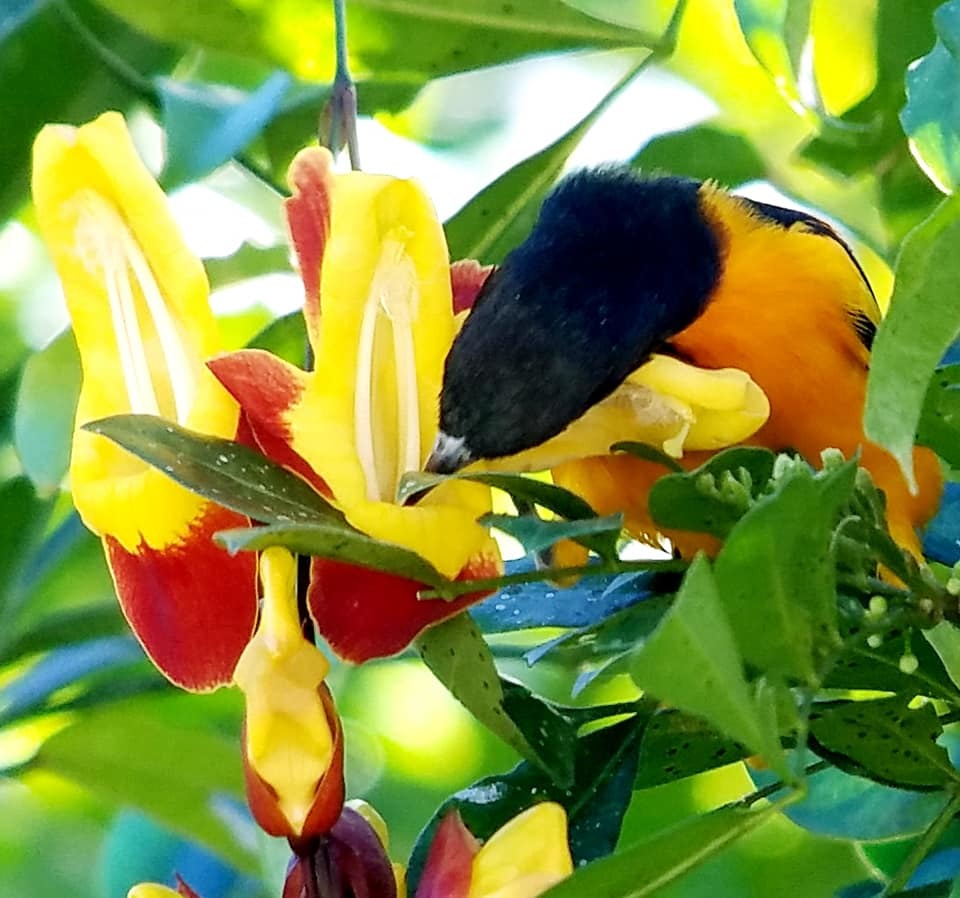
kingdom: Animalia
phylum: Chordata
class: Aves
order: Passeriformes
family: Icteridae
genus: Icterus
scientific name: Icterus galbula
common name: Baltimore oriole
